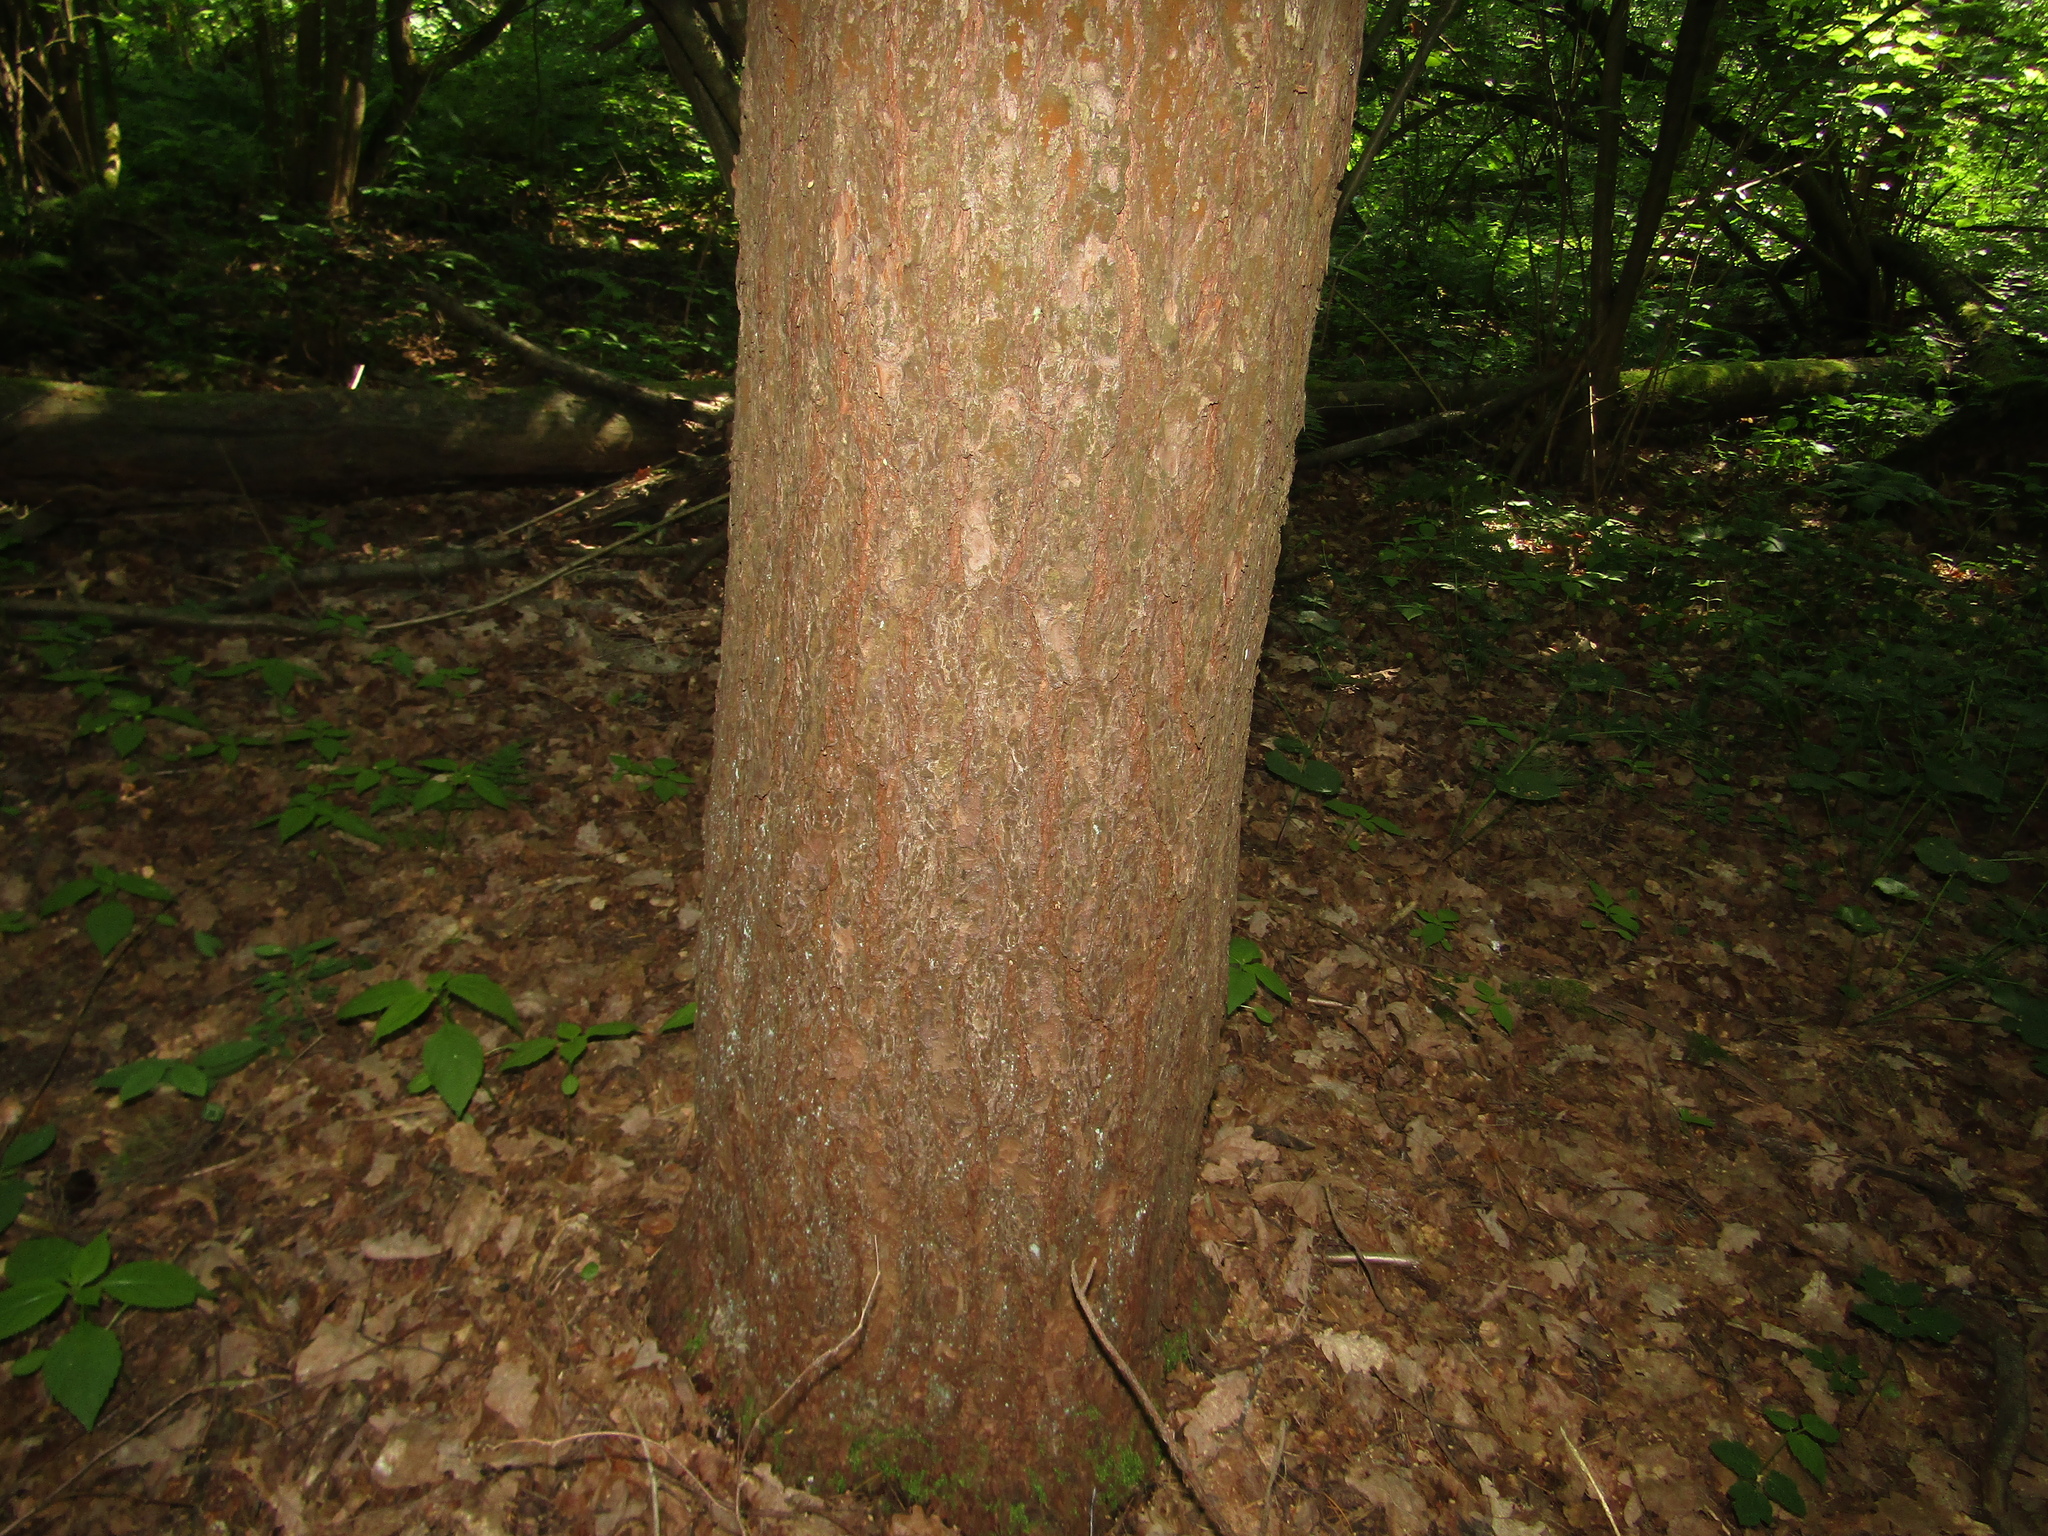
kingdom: Plantae
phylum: Tracheophyta
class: Pinopsida
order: Pinales
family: Pinaceae
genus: Pinus
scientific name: Pinus sylvestris
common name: Scots pine
